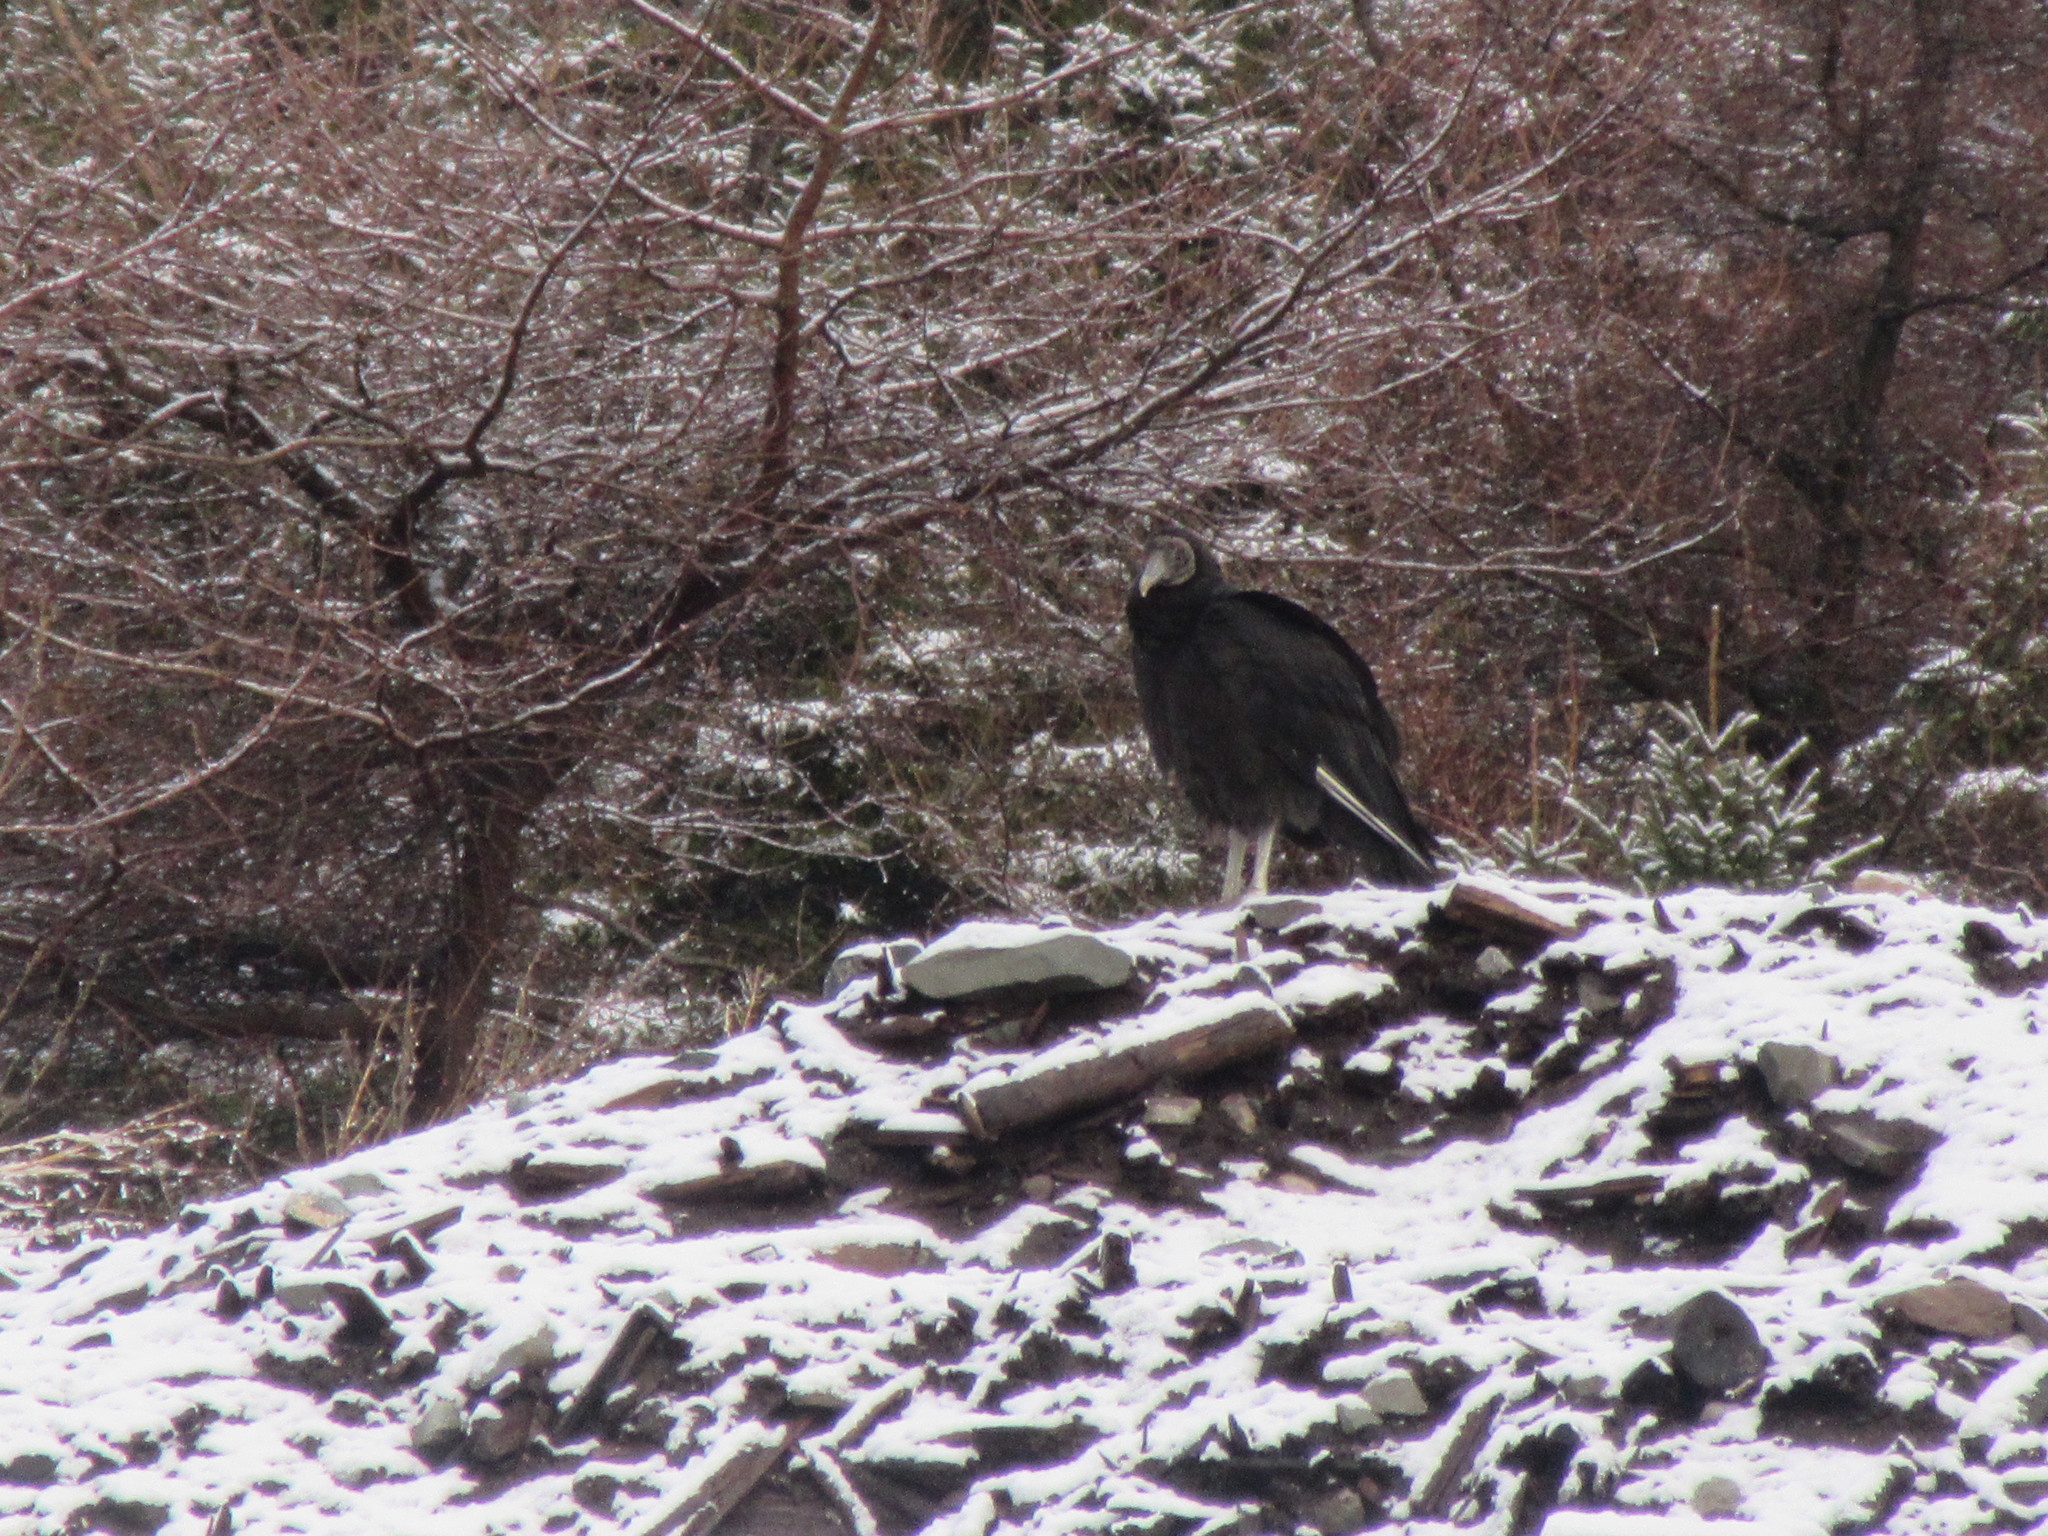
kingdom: Animalia
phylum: Chordata
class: Aves
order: Accipitriformes
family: Cathartidae
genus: Coragyps
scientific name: Coragyps atratus
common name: Black vulture
